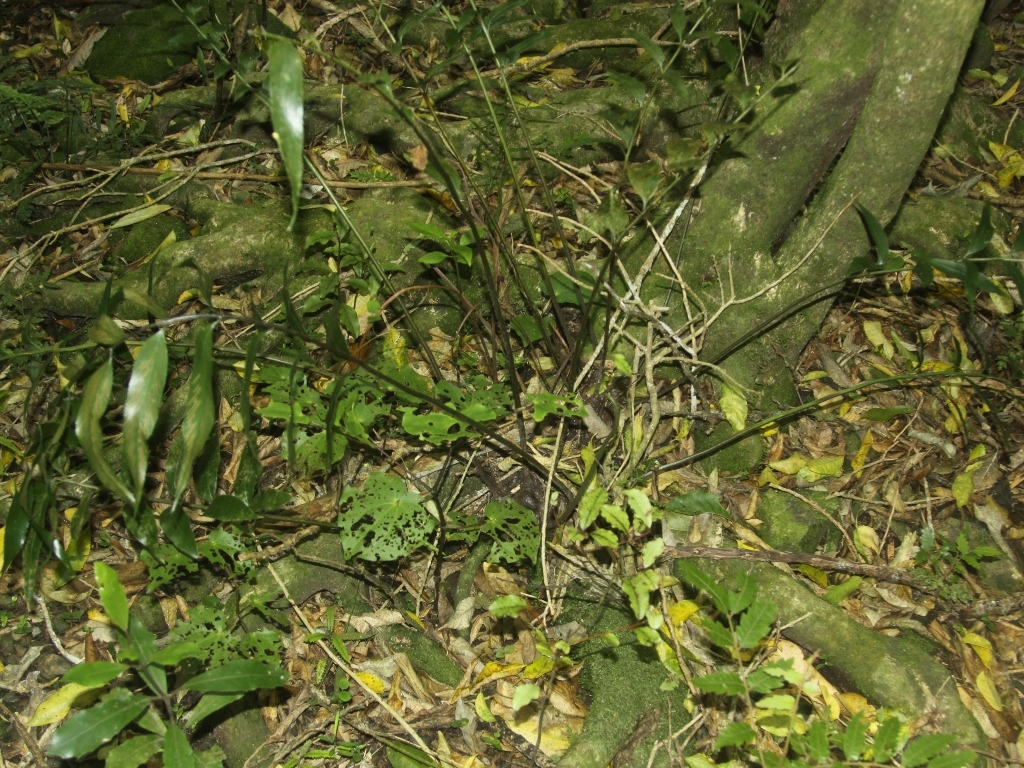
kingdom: Plantae
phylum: Tracheophyta
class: Polypodiopsida
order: Polypodiales
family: Aspleniaceae
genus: Asplenium
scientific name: Asplenium oblongifolium
